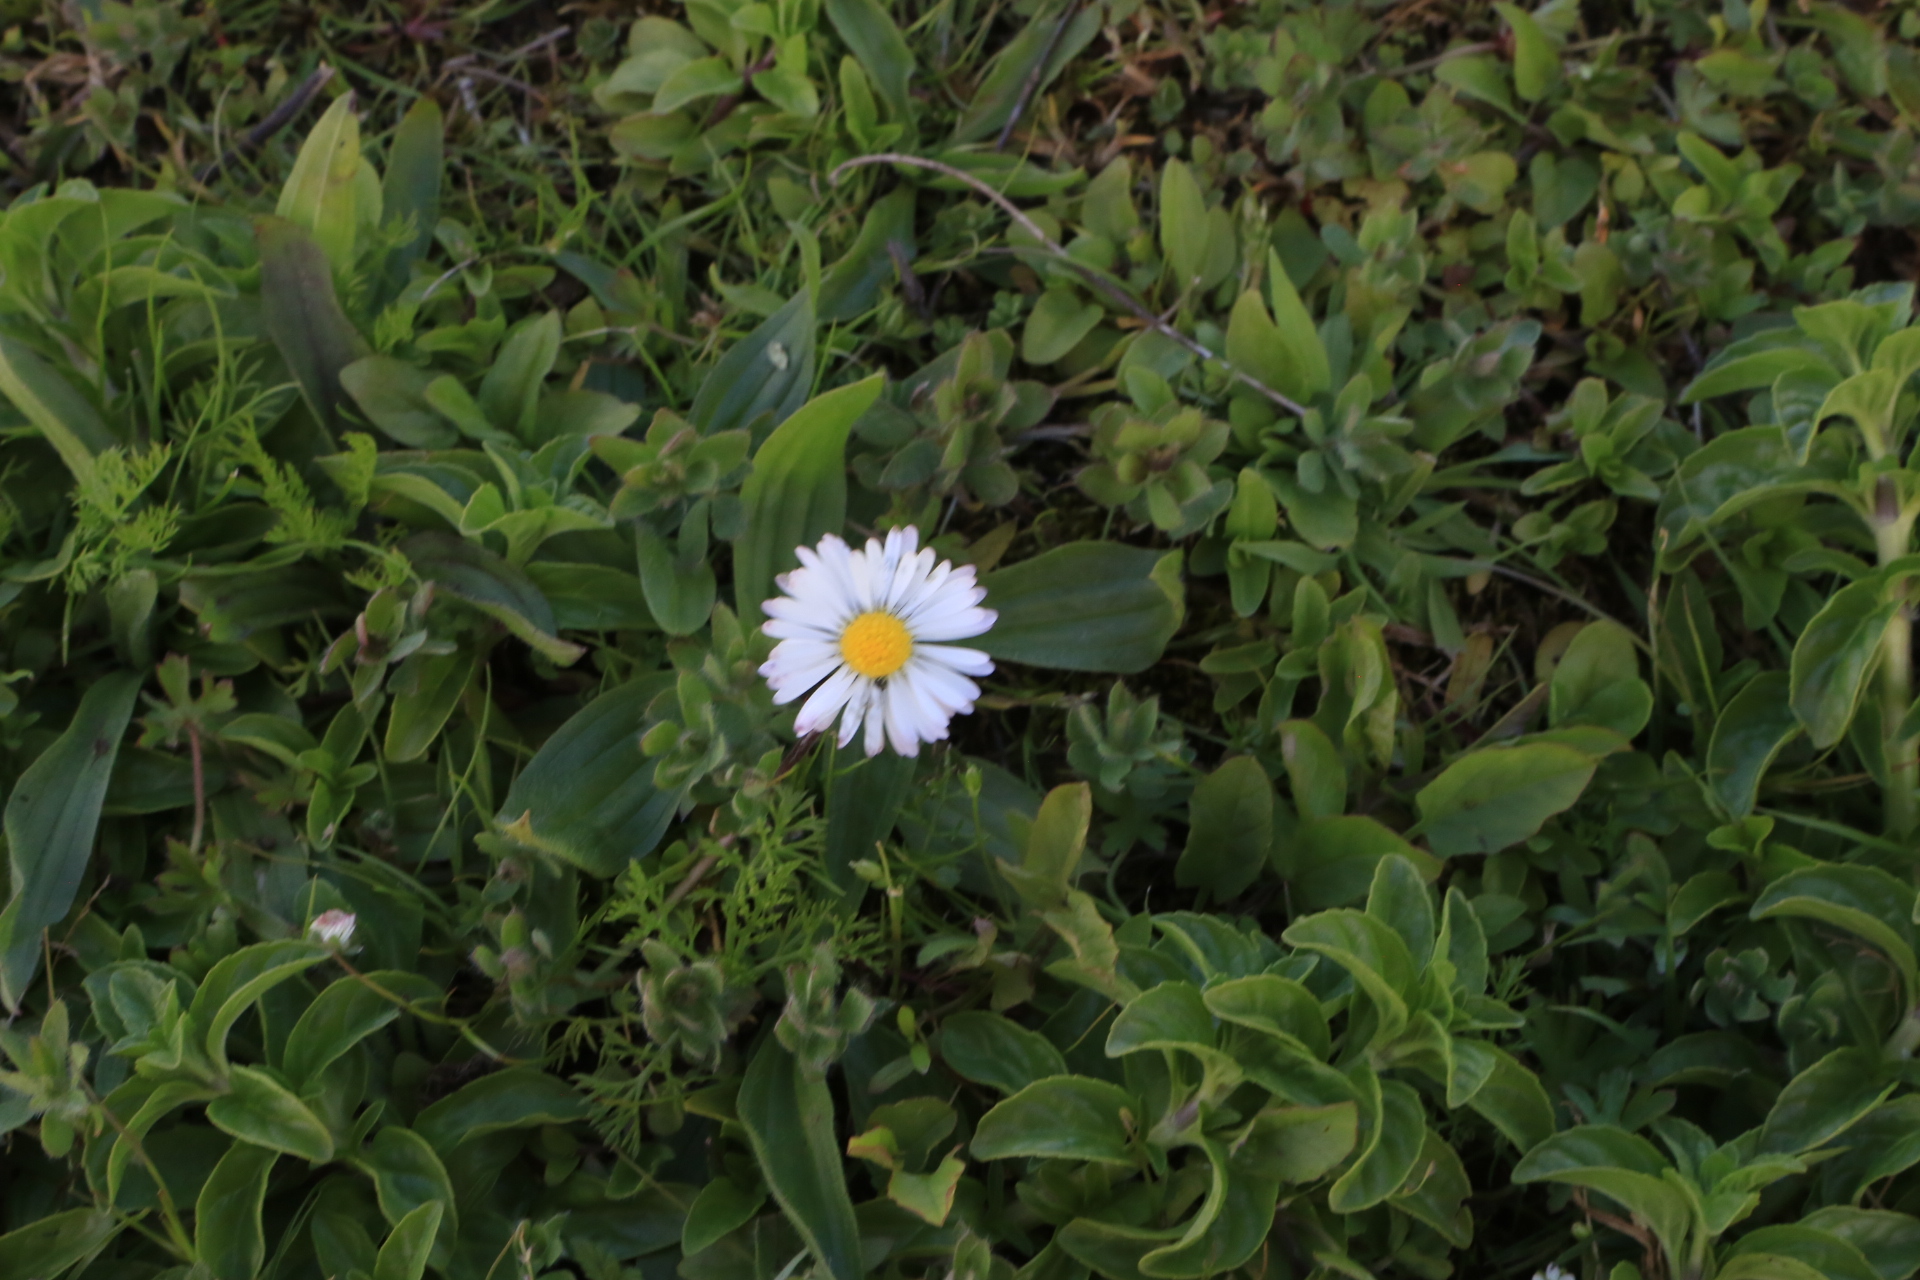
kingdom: Plantae
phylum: Tracheophyta
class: Magnoliopsida
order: Asterales
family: Asteraceae
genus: Bellis
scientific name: Bellis perennis
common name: Lawndaisy
